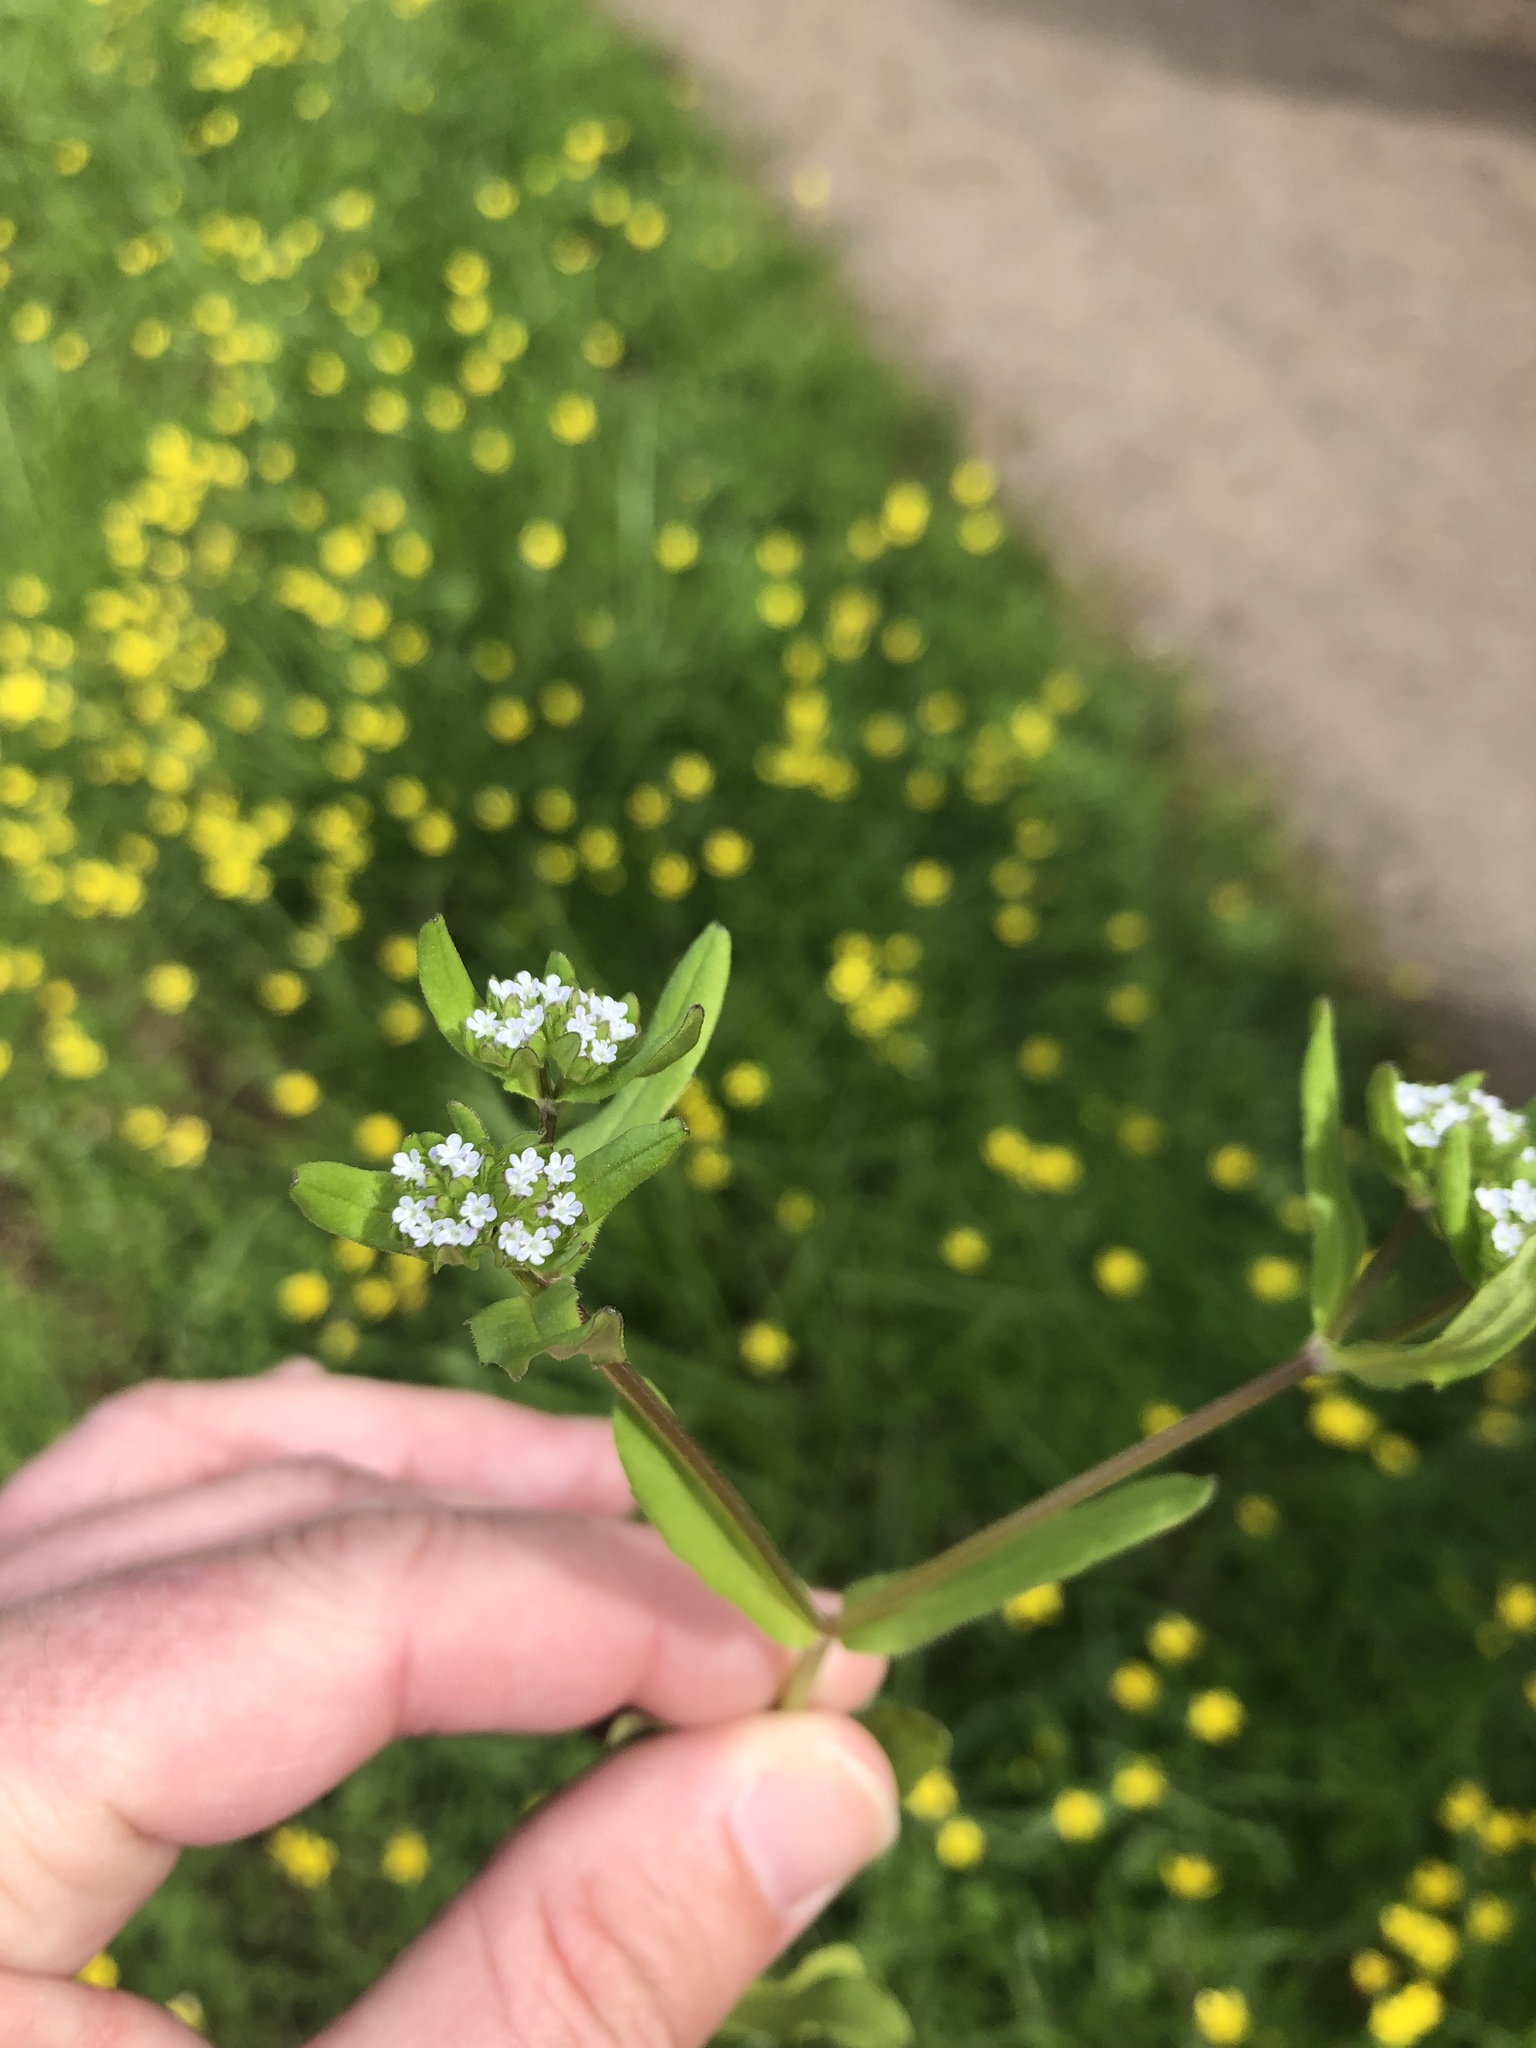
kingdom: Plantae
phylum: Tracheophyta
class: Magnoliopsida
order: Dipsacales
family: Caprifoliaceae
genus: Valerianella
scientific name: Valerianella locusta
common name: Common cornsalad
